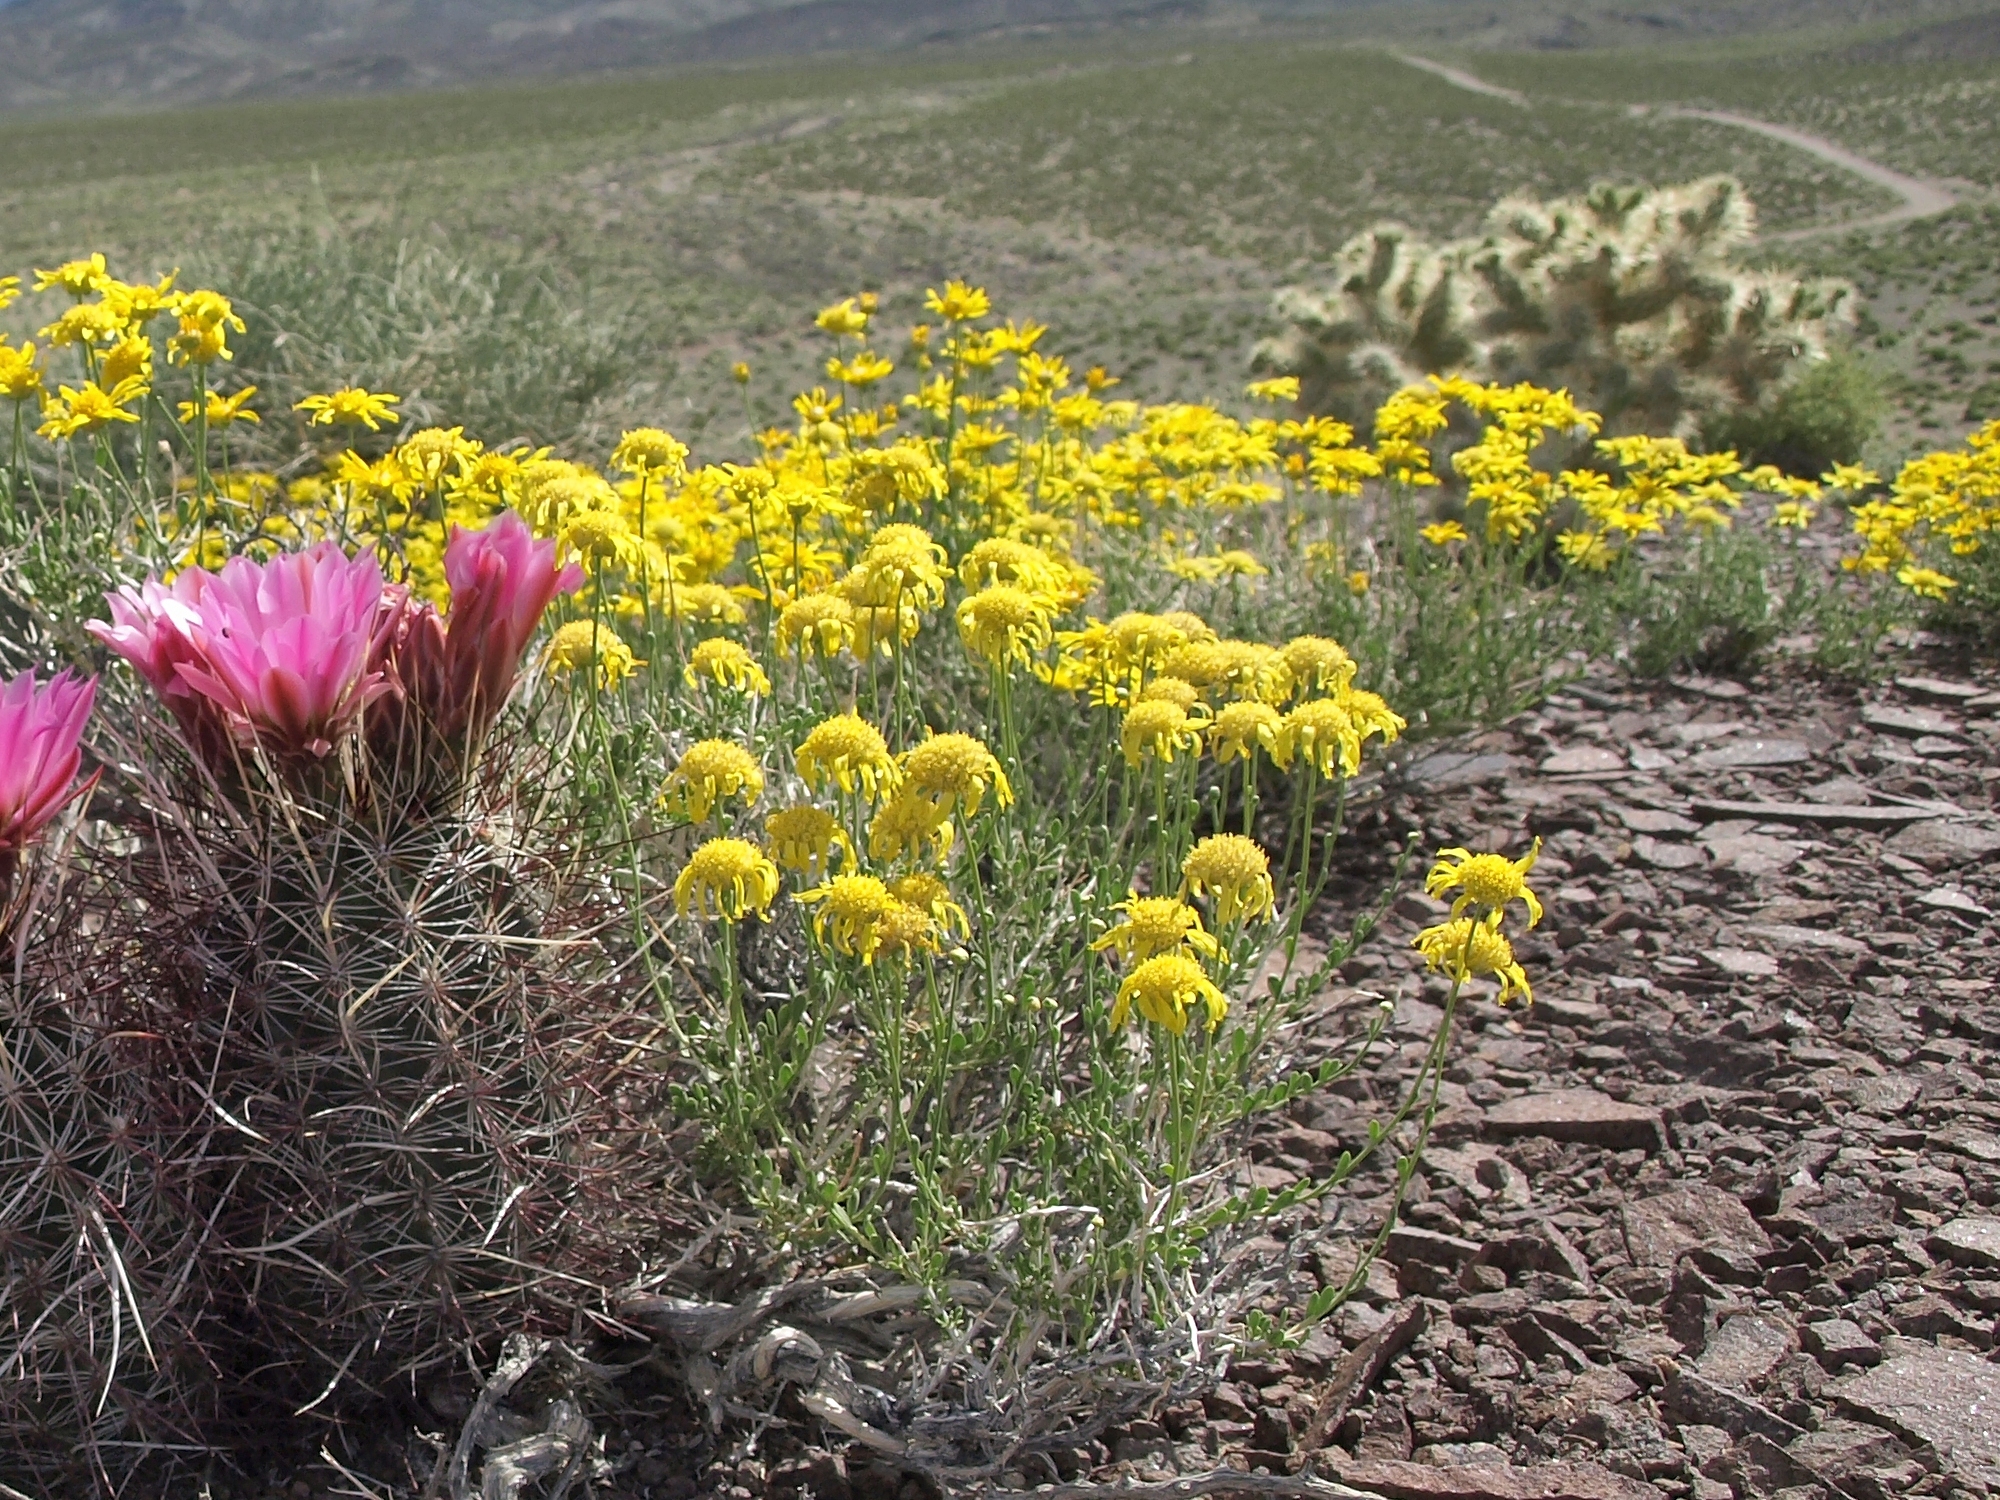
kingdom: Plantae
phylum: Tracheophyta
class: Magnoliopsida
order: Asterales
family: Asteraceae
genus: Acamptopappus
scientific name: Acamptopappus shockleyi
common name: Shockley's goldenhead
